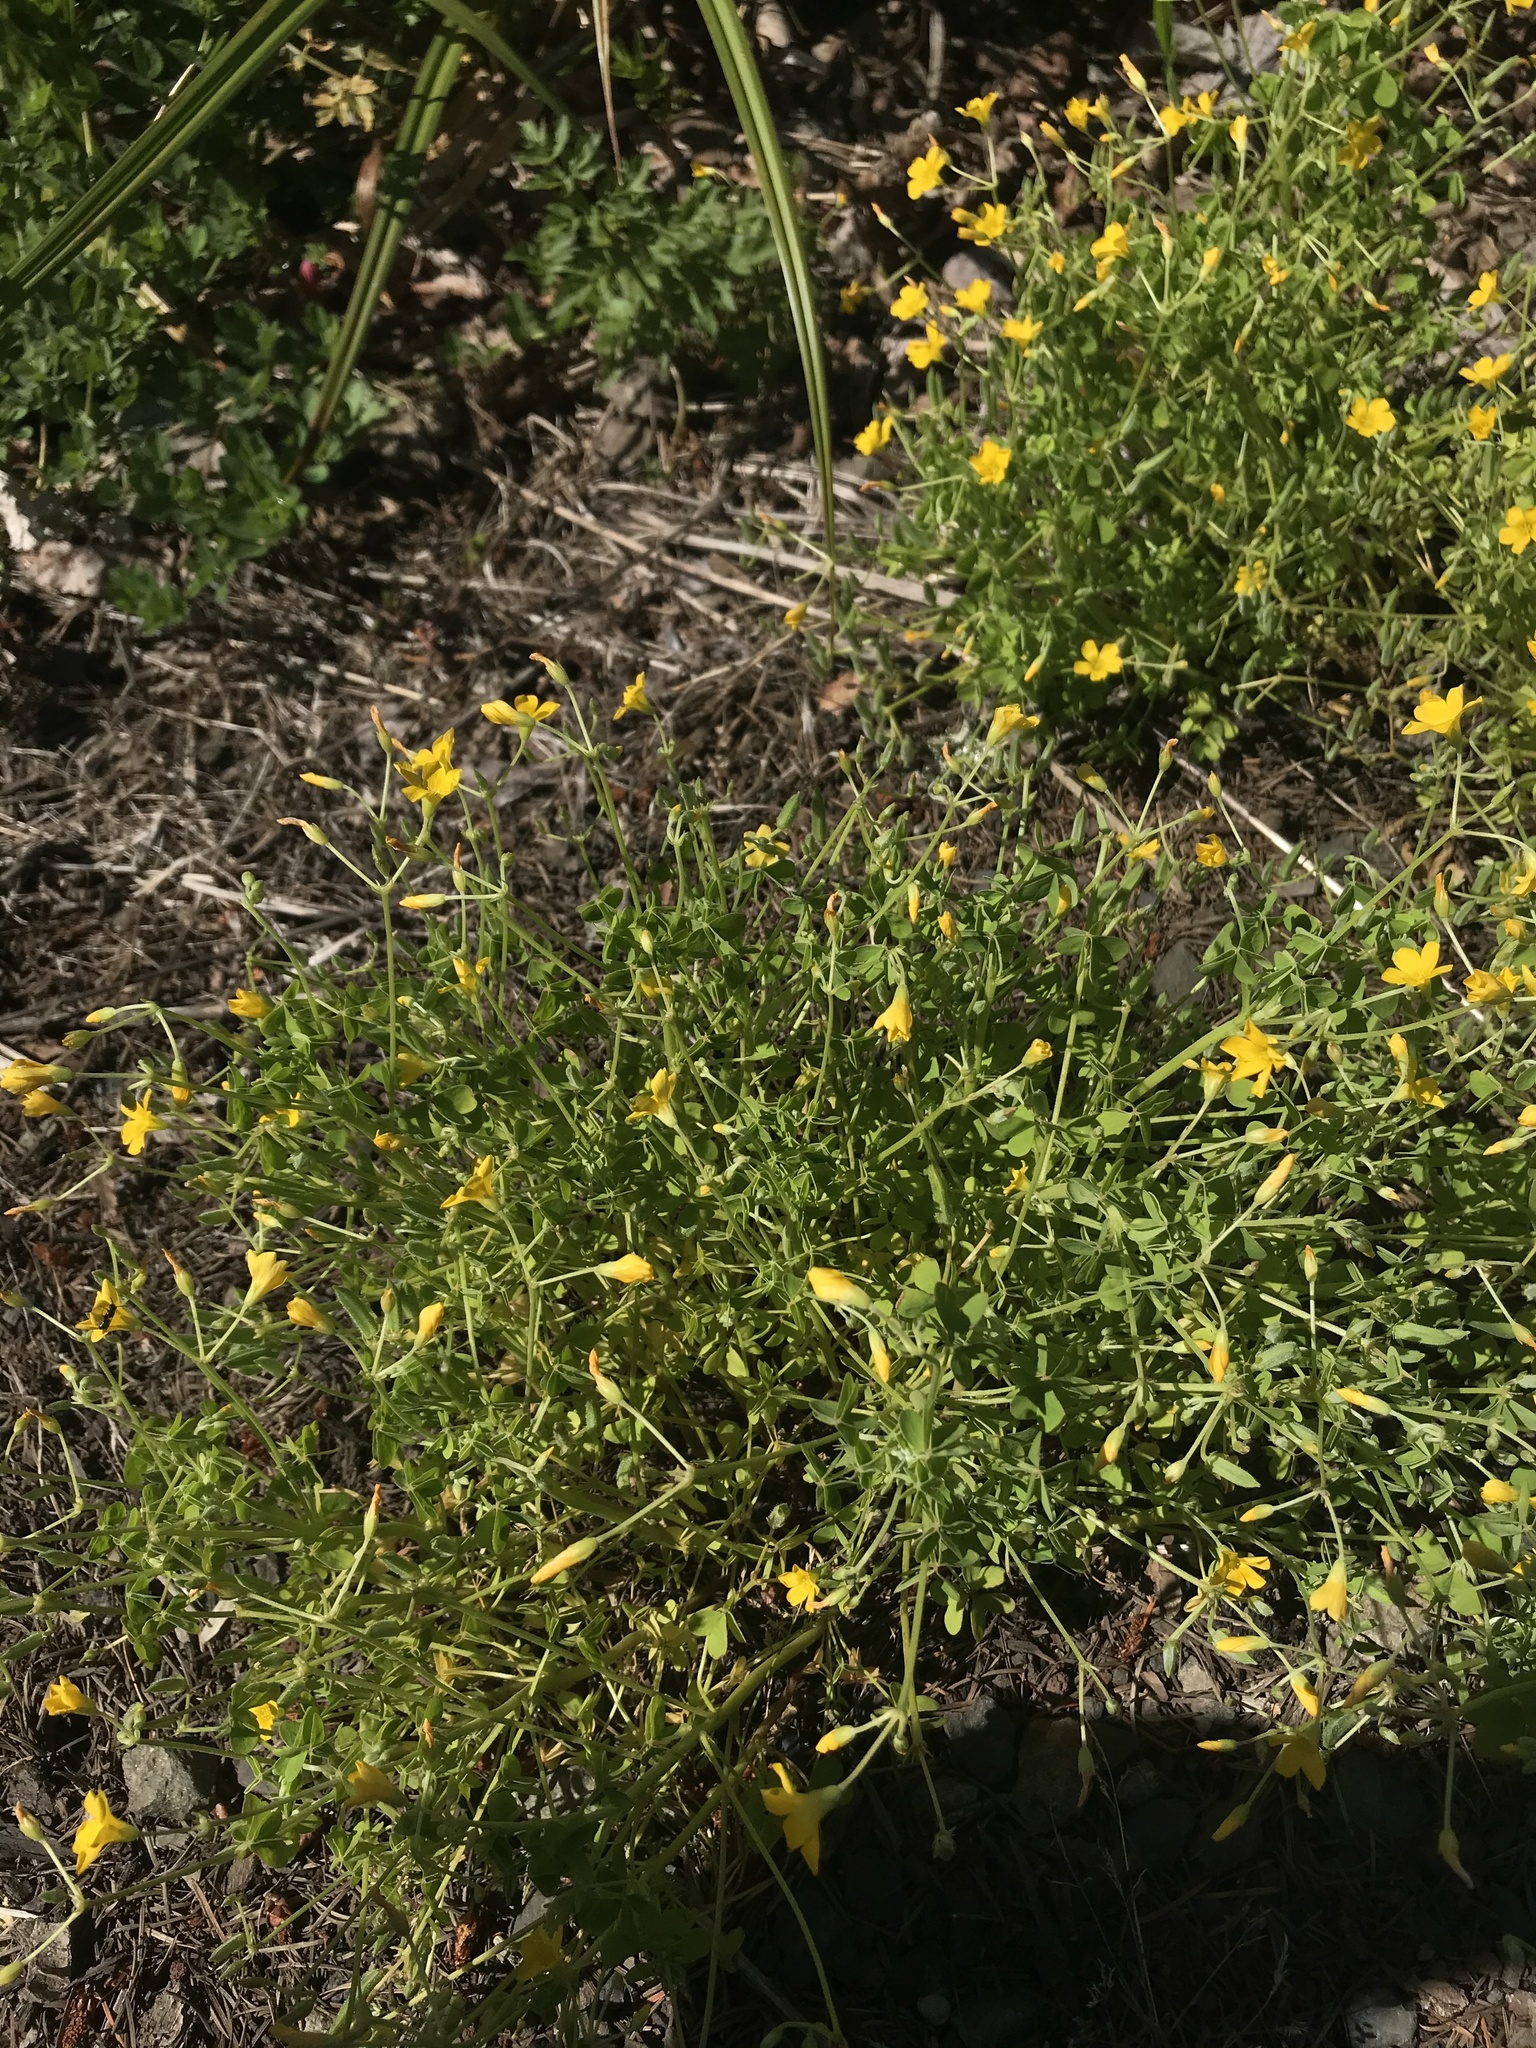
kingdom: Plantae
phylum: Tracheophyta
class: Magnoliopsida
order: Oxalidales
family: Oxalidaceae
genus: Oxalis
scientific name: Oxalis dillenii
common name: Sussex yellow-sorrel
